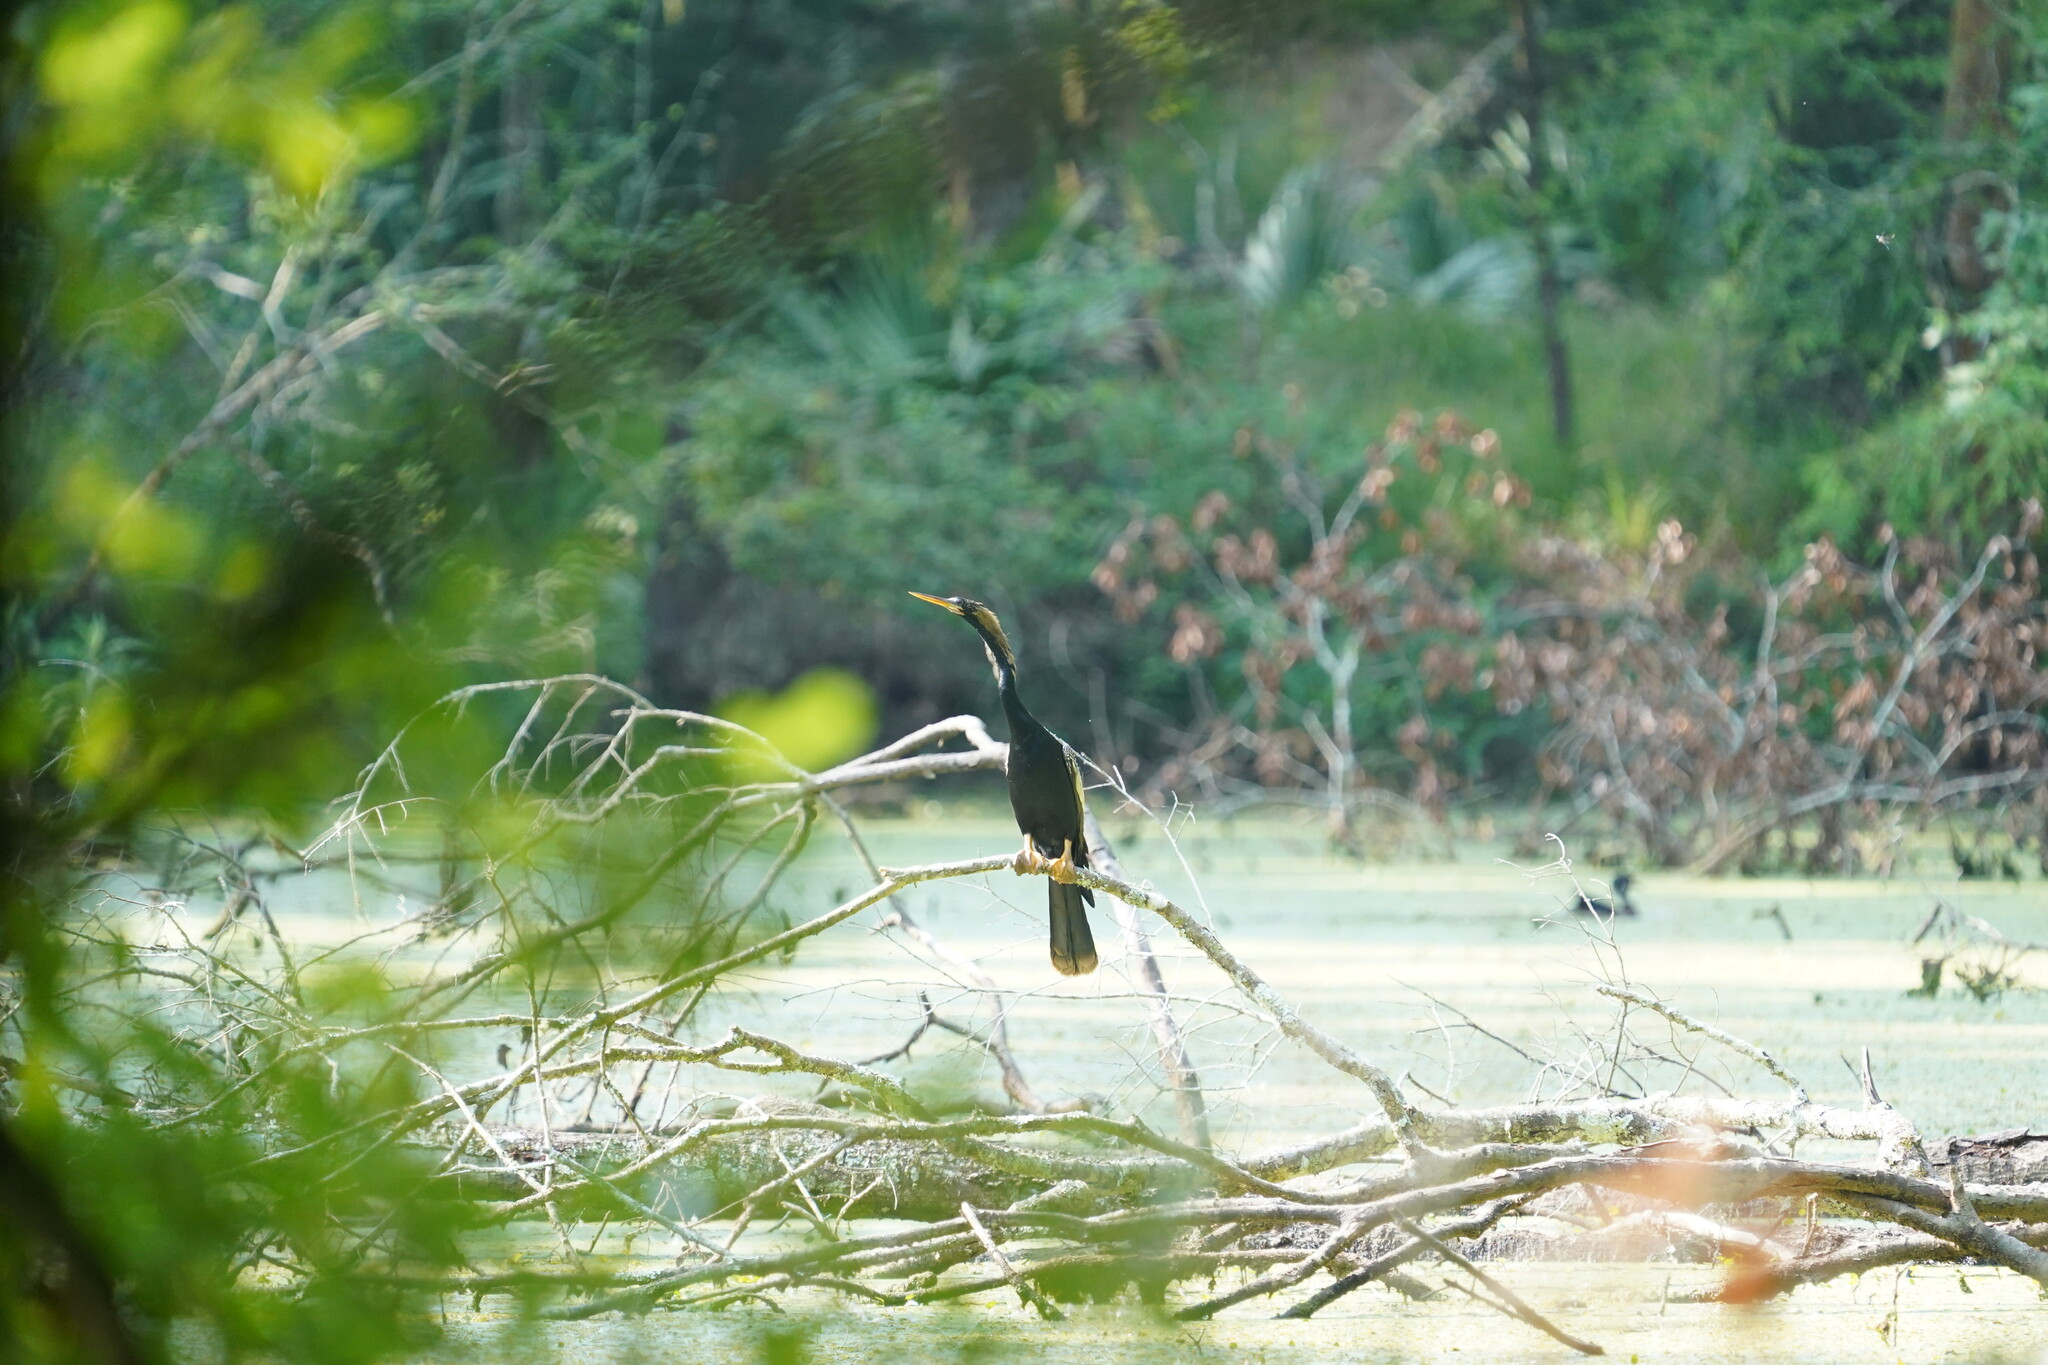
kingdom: Animalia
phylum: Chordata
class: Aves
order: Suliformes
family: Anhingidae
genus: Anhinga
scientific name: Anhinga anhinga
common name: Anhinga
